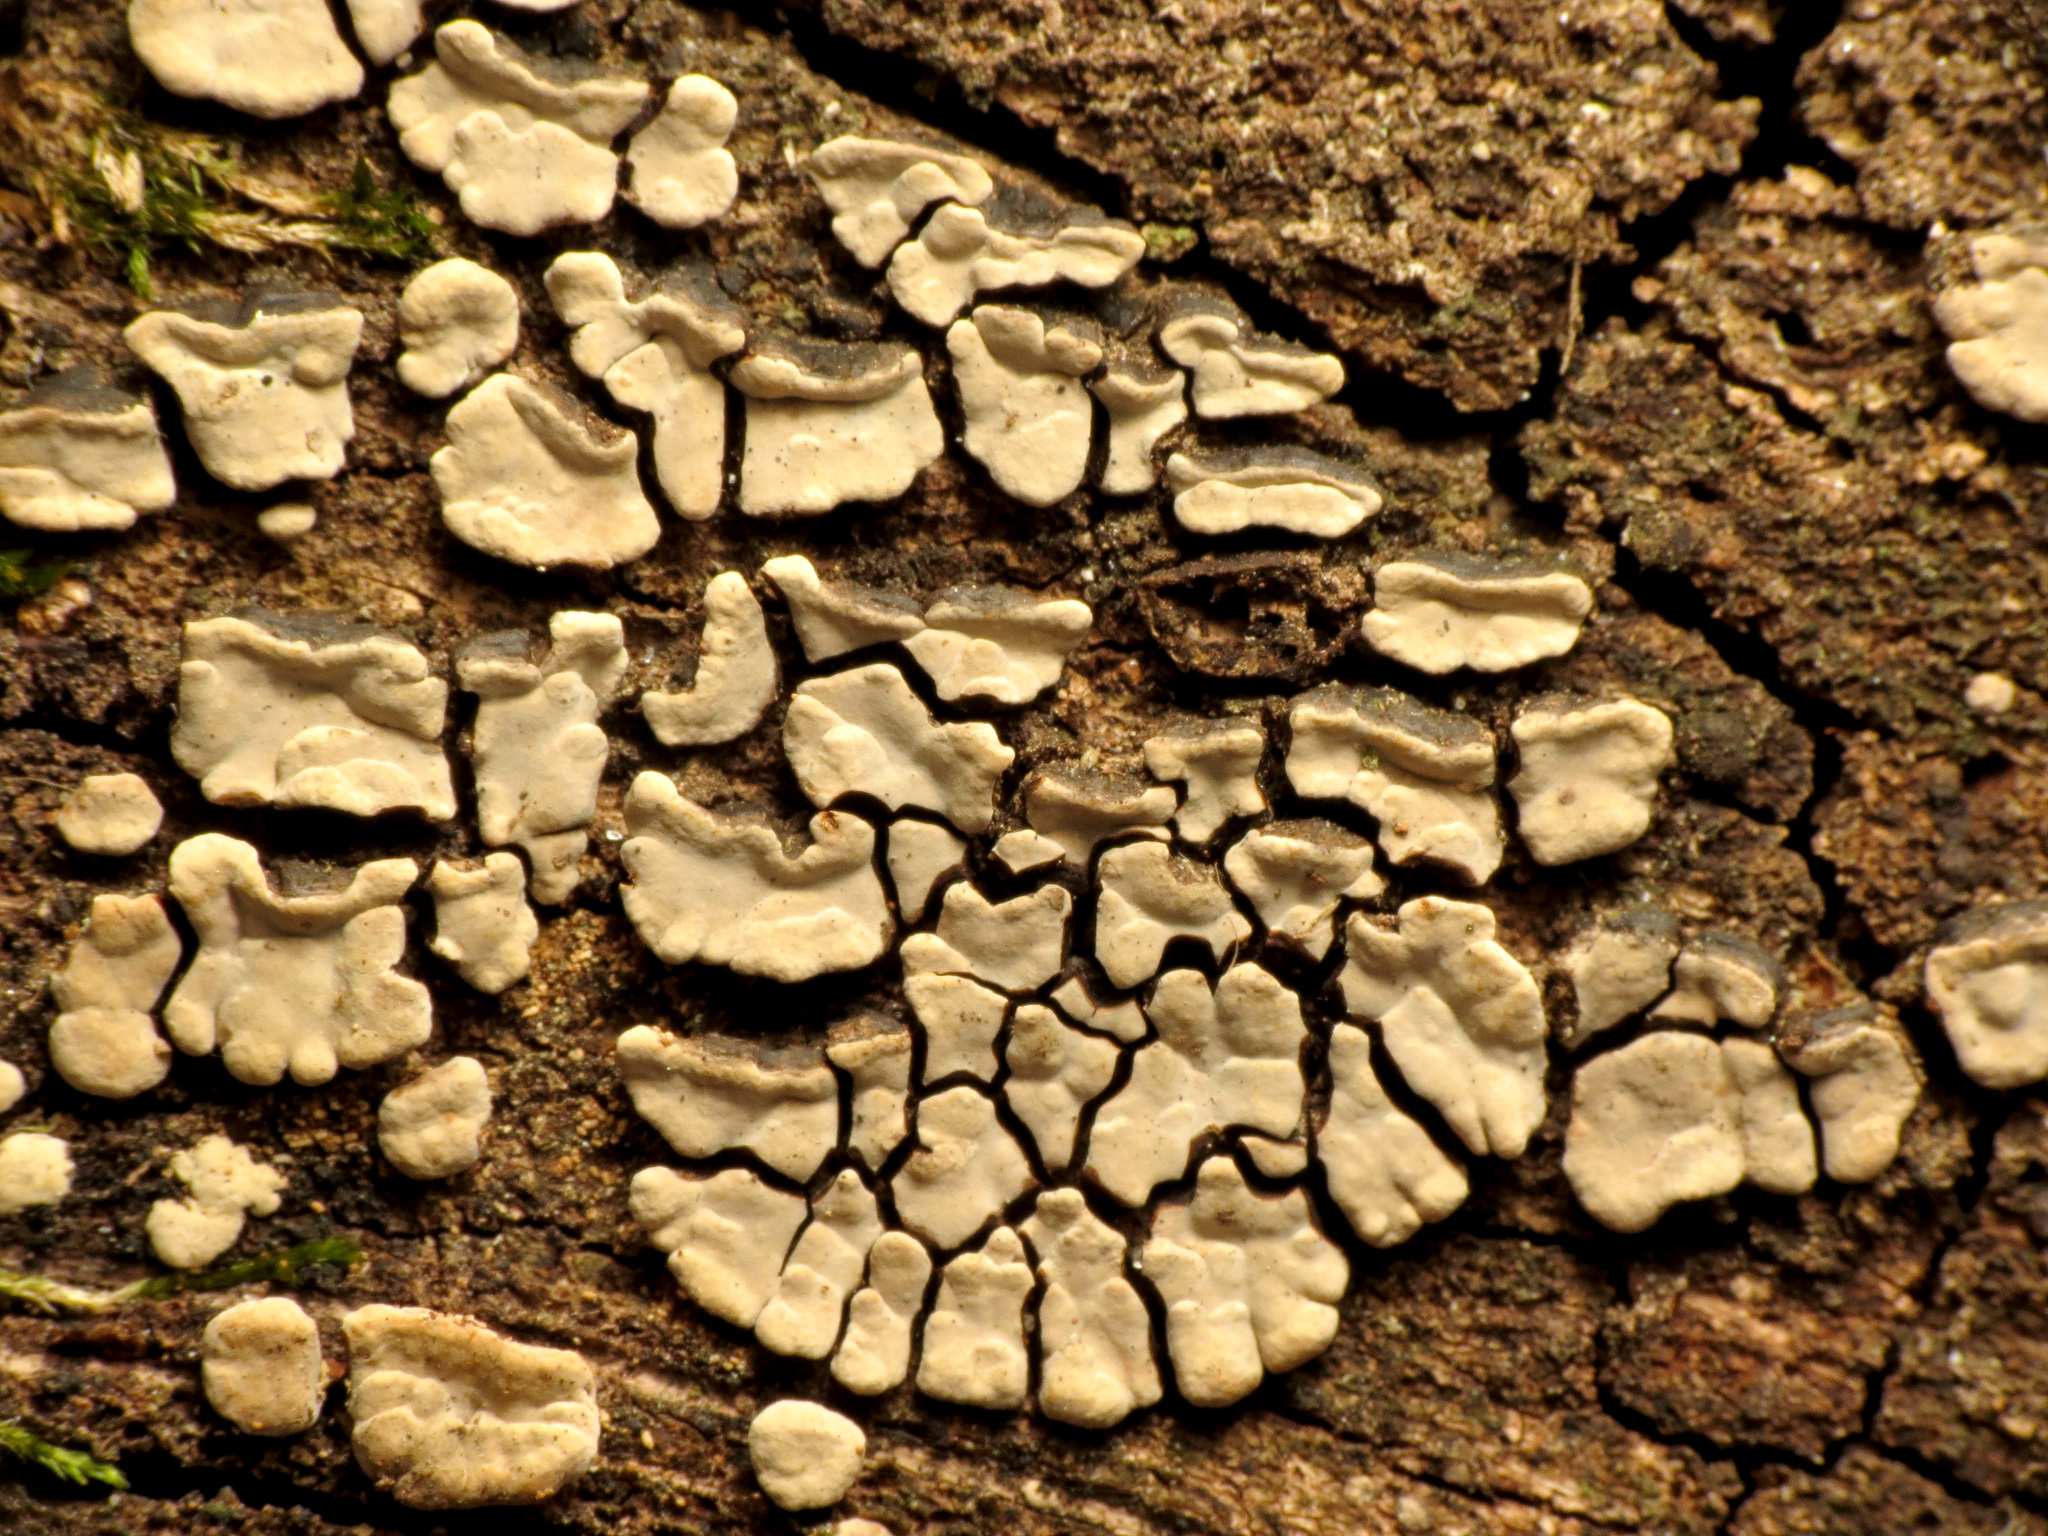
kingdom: Fungi
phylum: Basidiomycota
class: Agaricomycetes
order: Russulales
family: Stereaceae
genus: Xylobolus
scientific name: Xylobolus frustulatus
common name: Ceramic parchment
